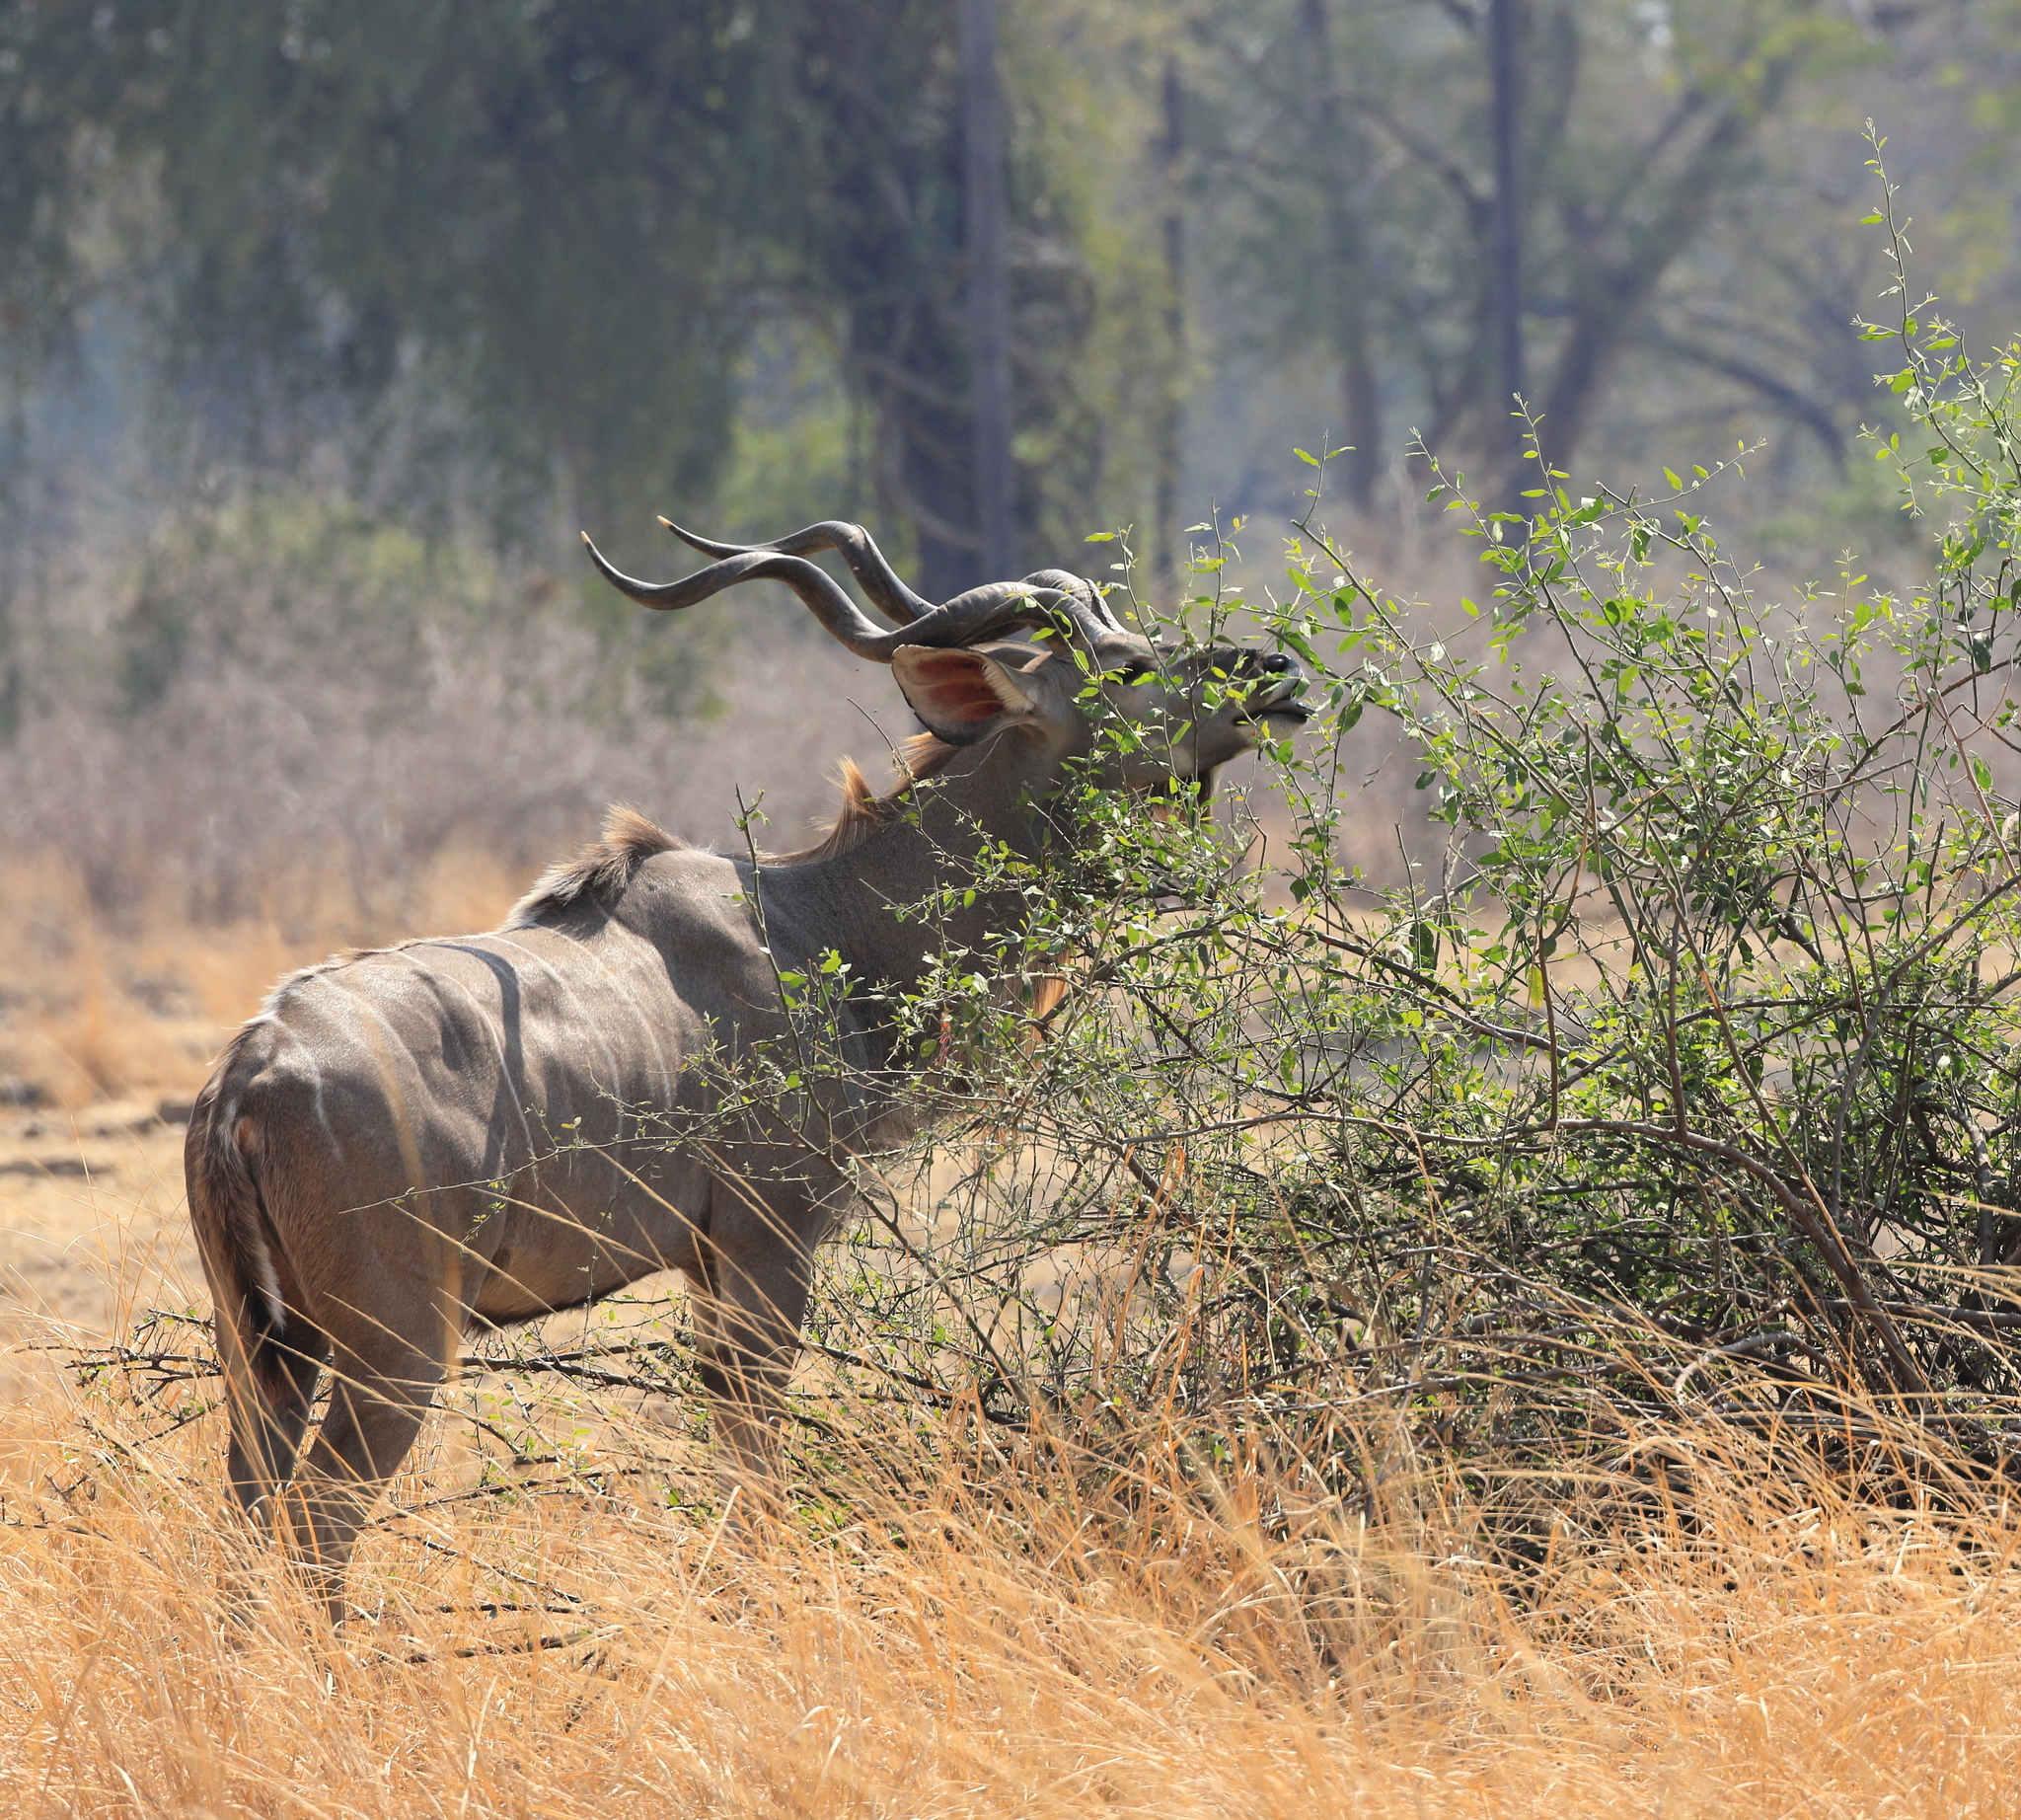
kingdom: Animalia
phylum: Chordata
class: Mammalia
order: Artiodactyla
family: Bovidae
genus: Tragelaphus
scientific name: Tragelaphus strepsiceros
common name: Greater kudu
